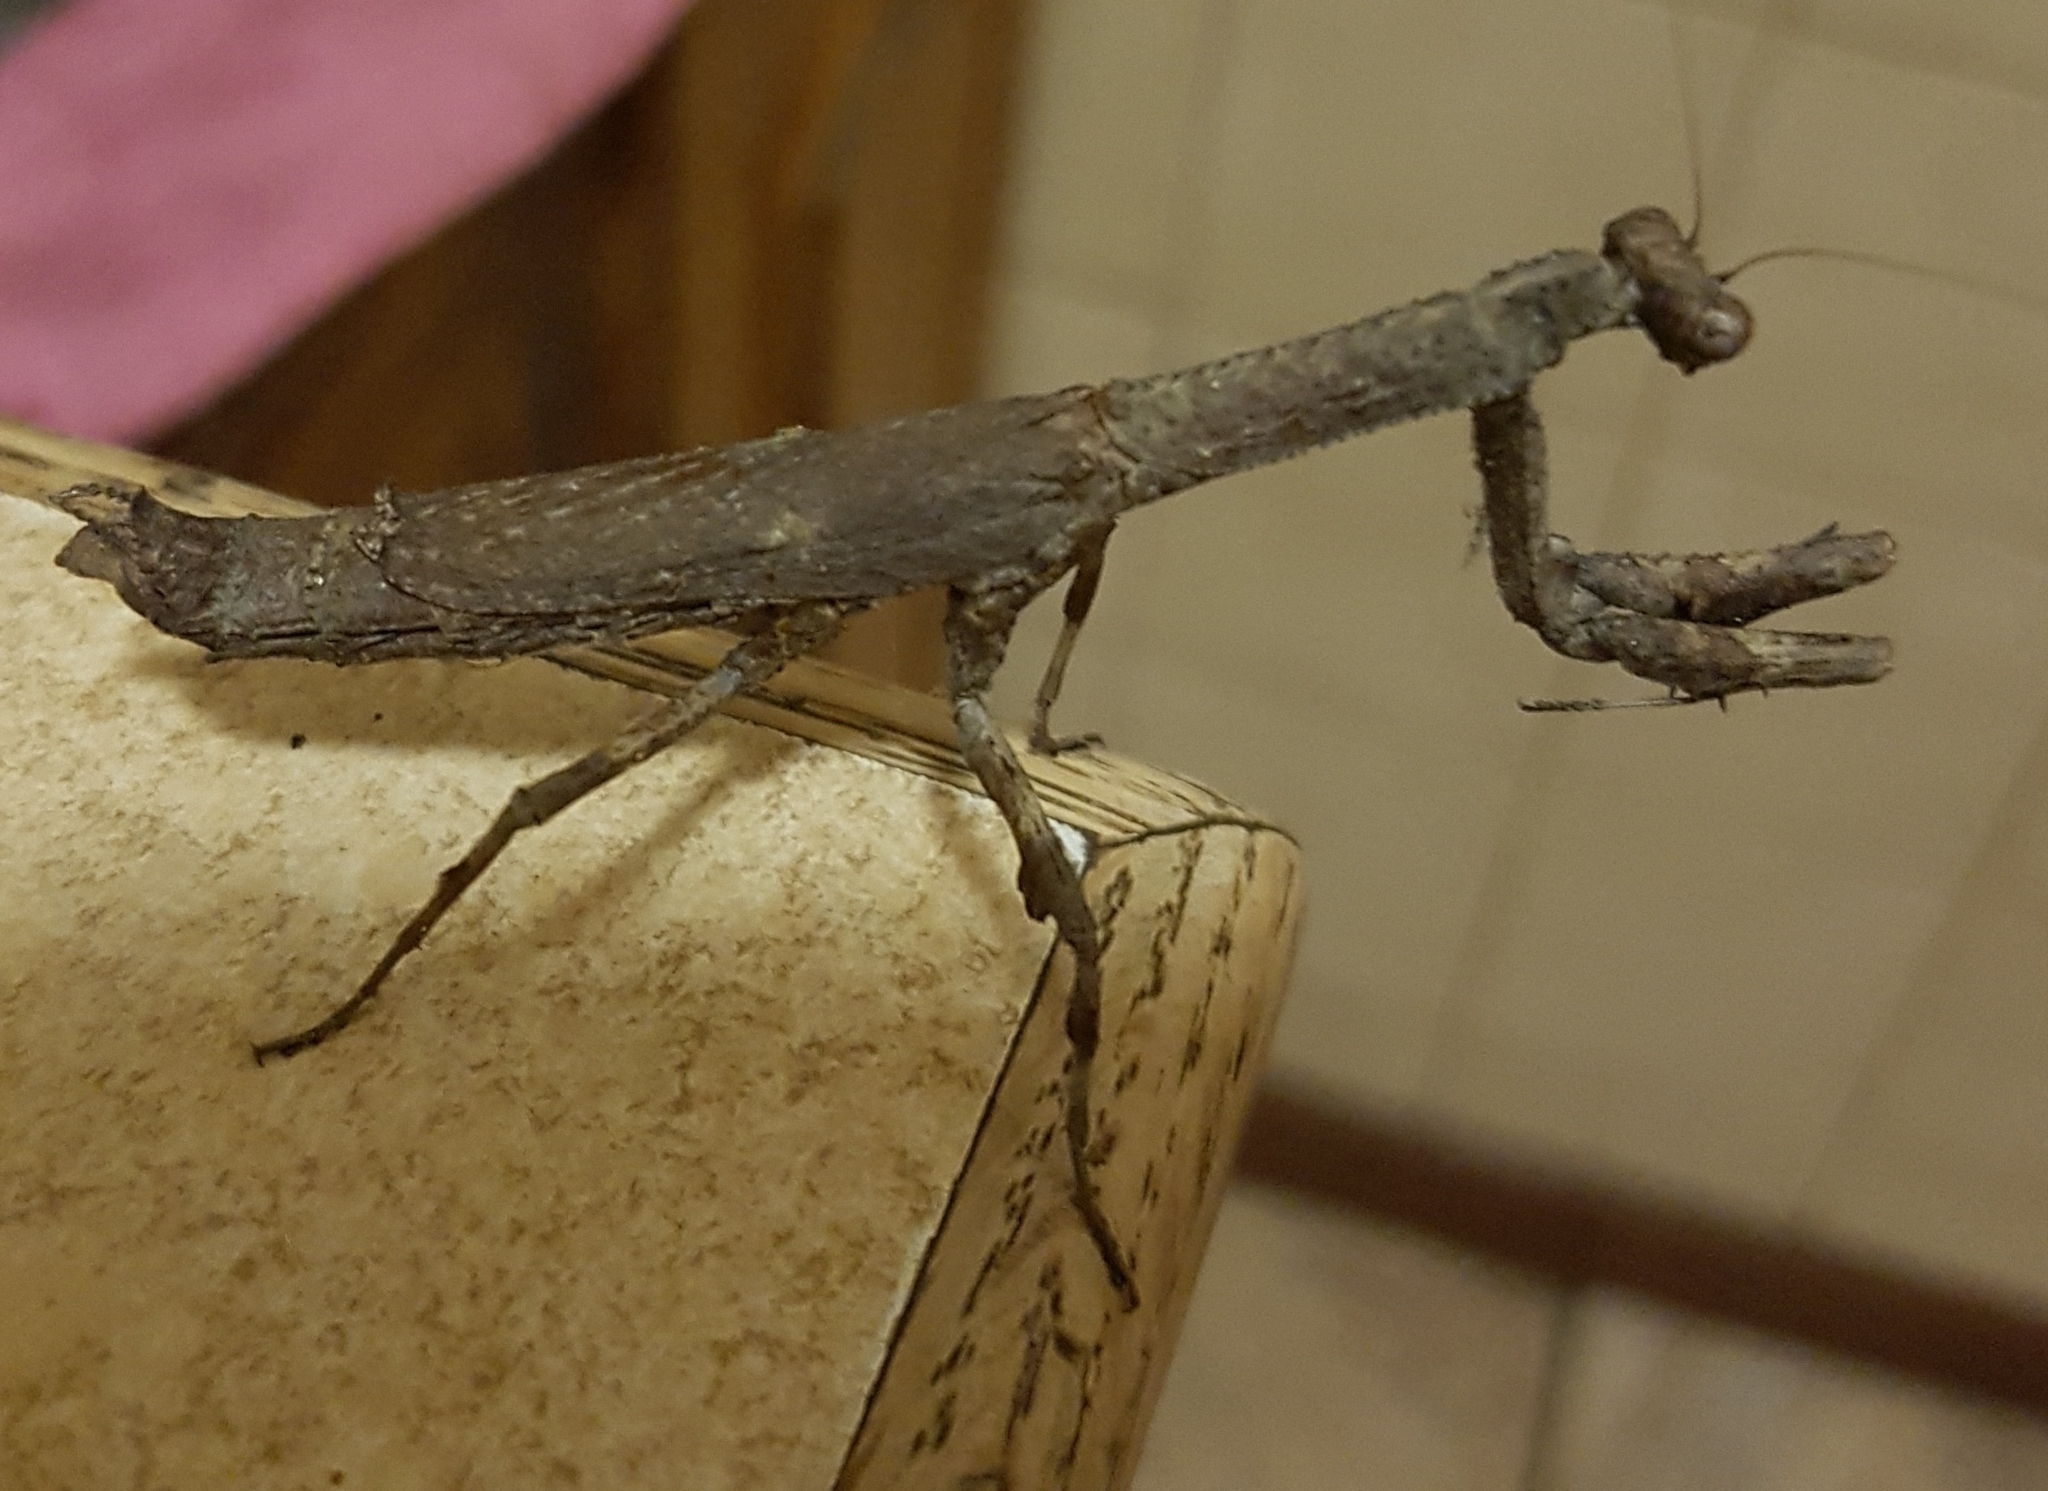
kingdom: Animalia
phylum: Arthropoda
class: Insecta
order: Mantodea
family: Deroplatyidae
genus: Popa
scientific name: Popa spurca
